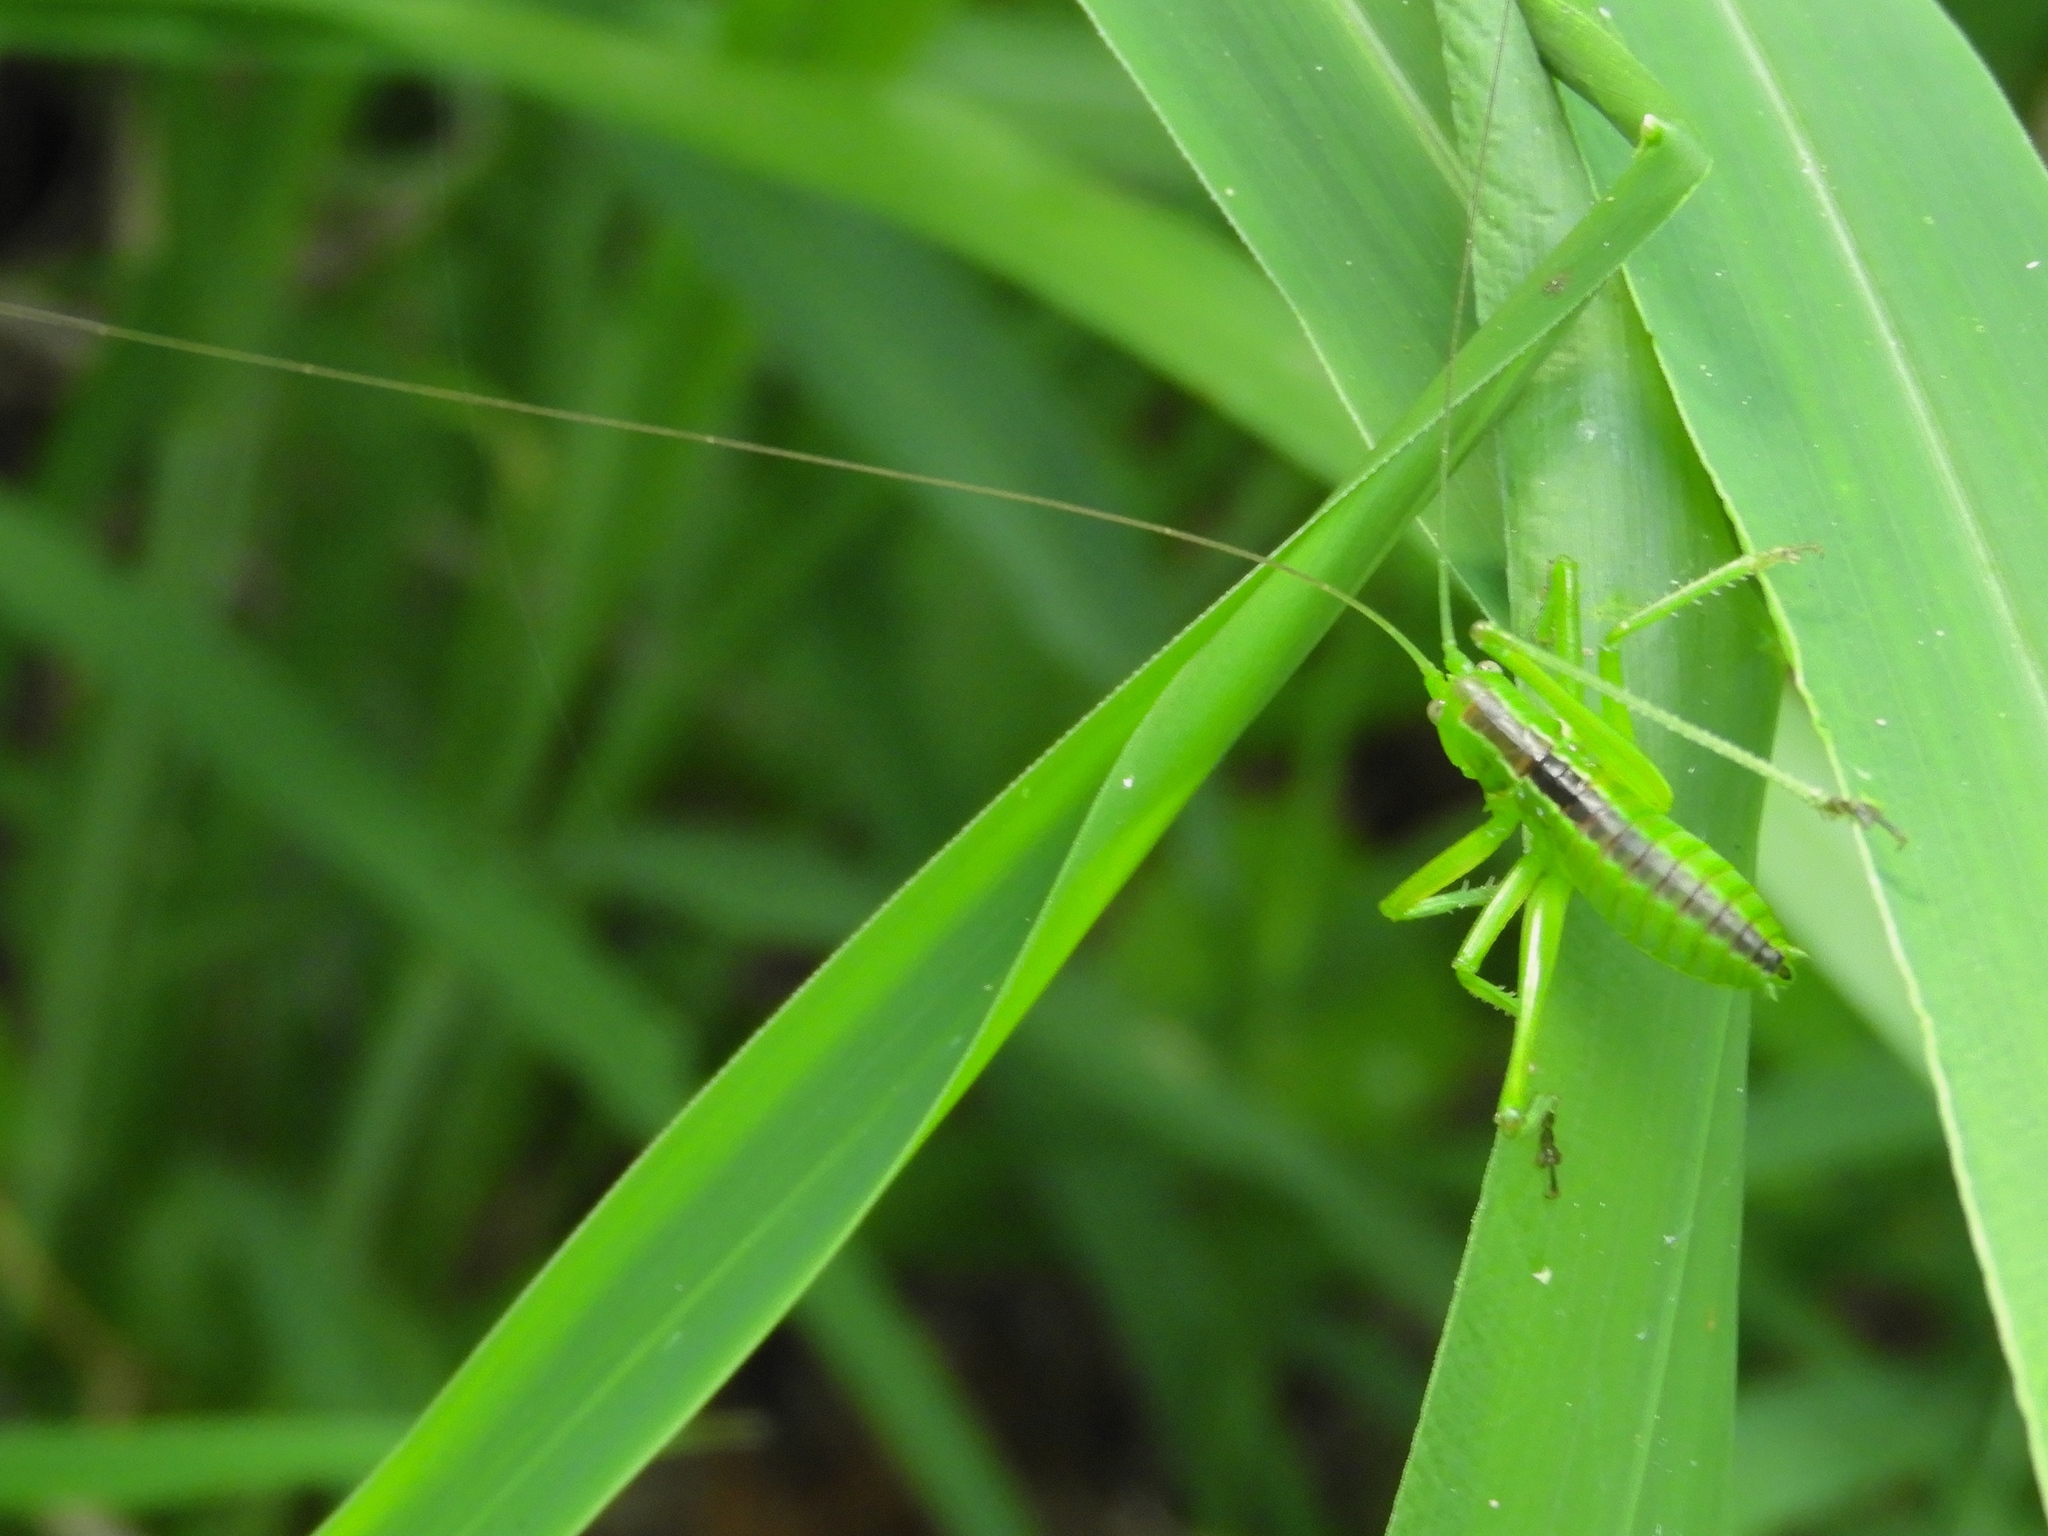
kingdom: Animalia
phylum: Arthropoda
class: Insecta
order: Orthoptera
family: Tettigoniidae
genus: Neobarrettia
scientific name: Neobarrettia sinaloae
